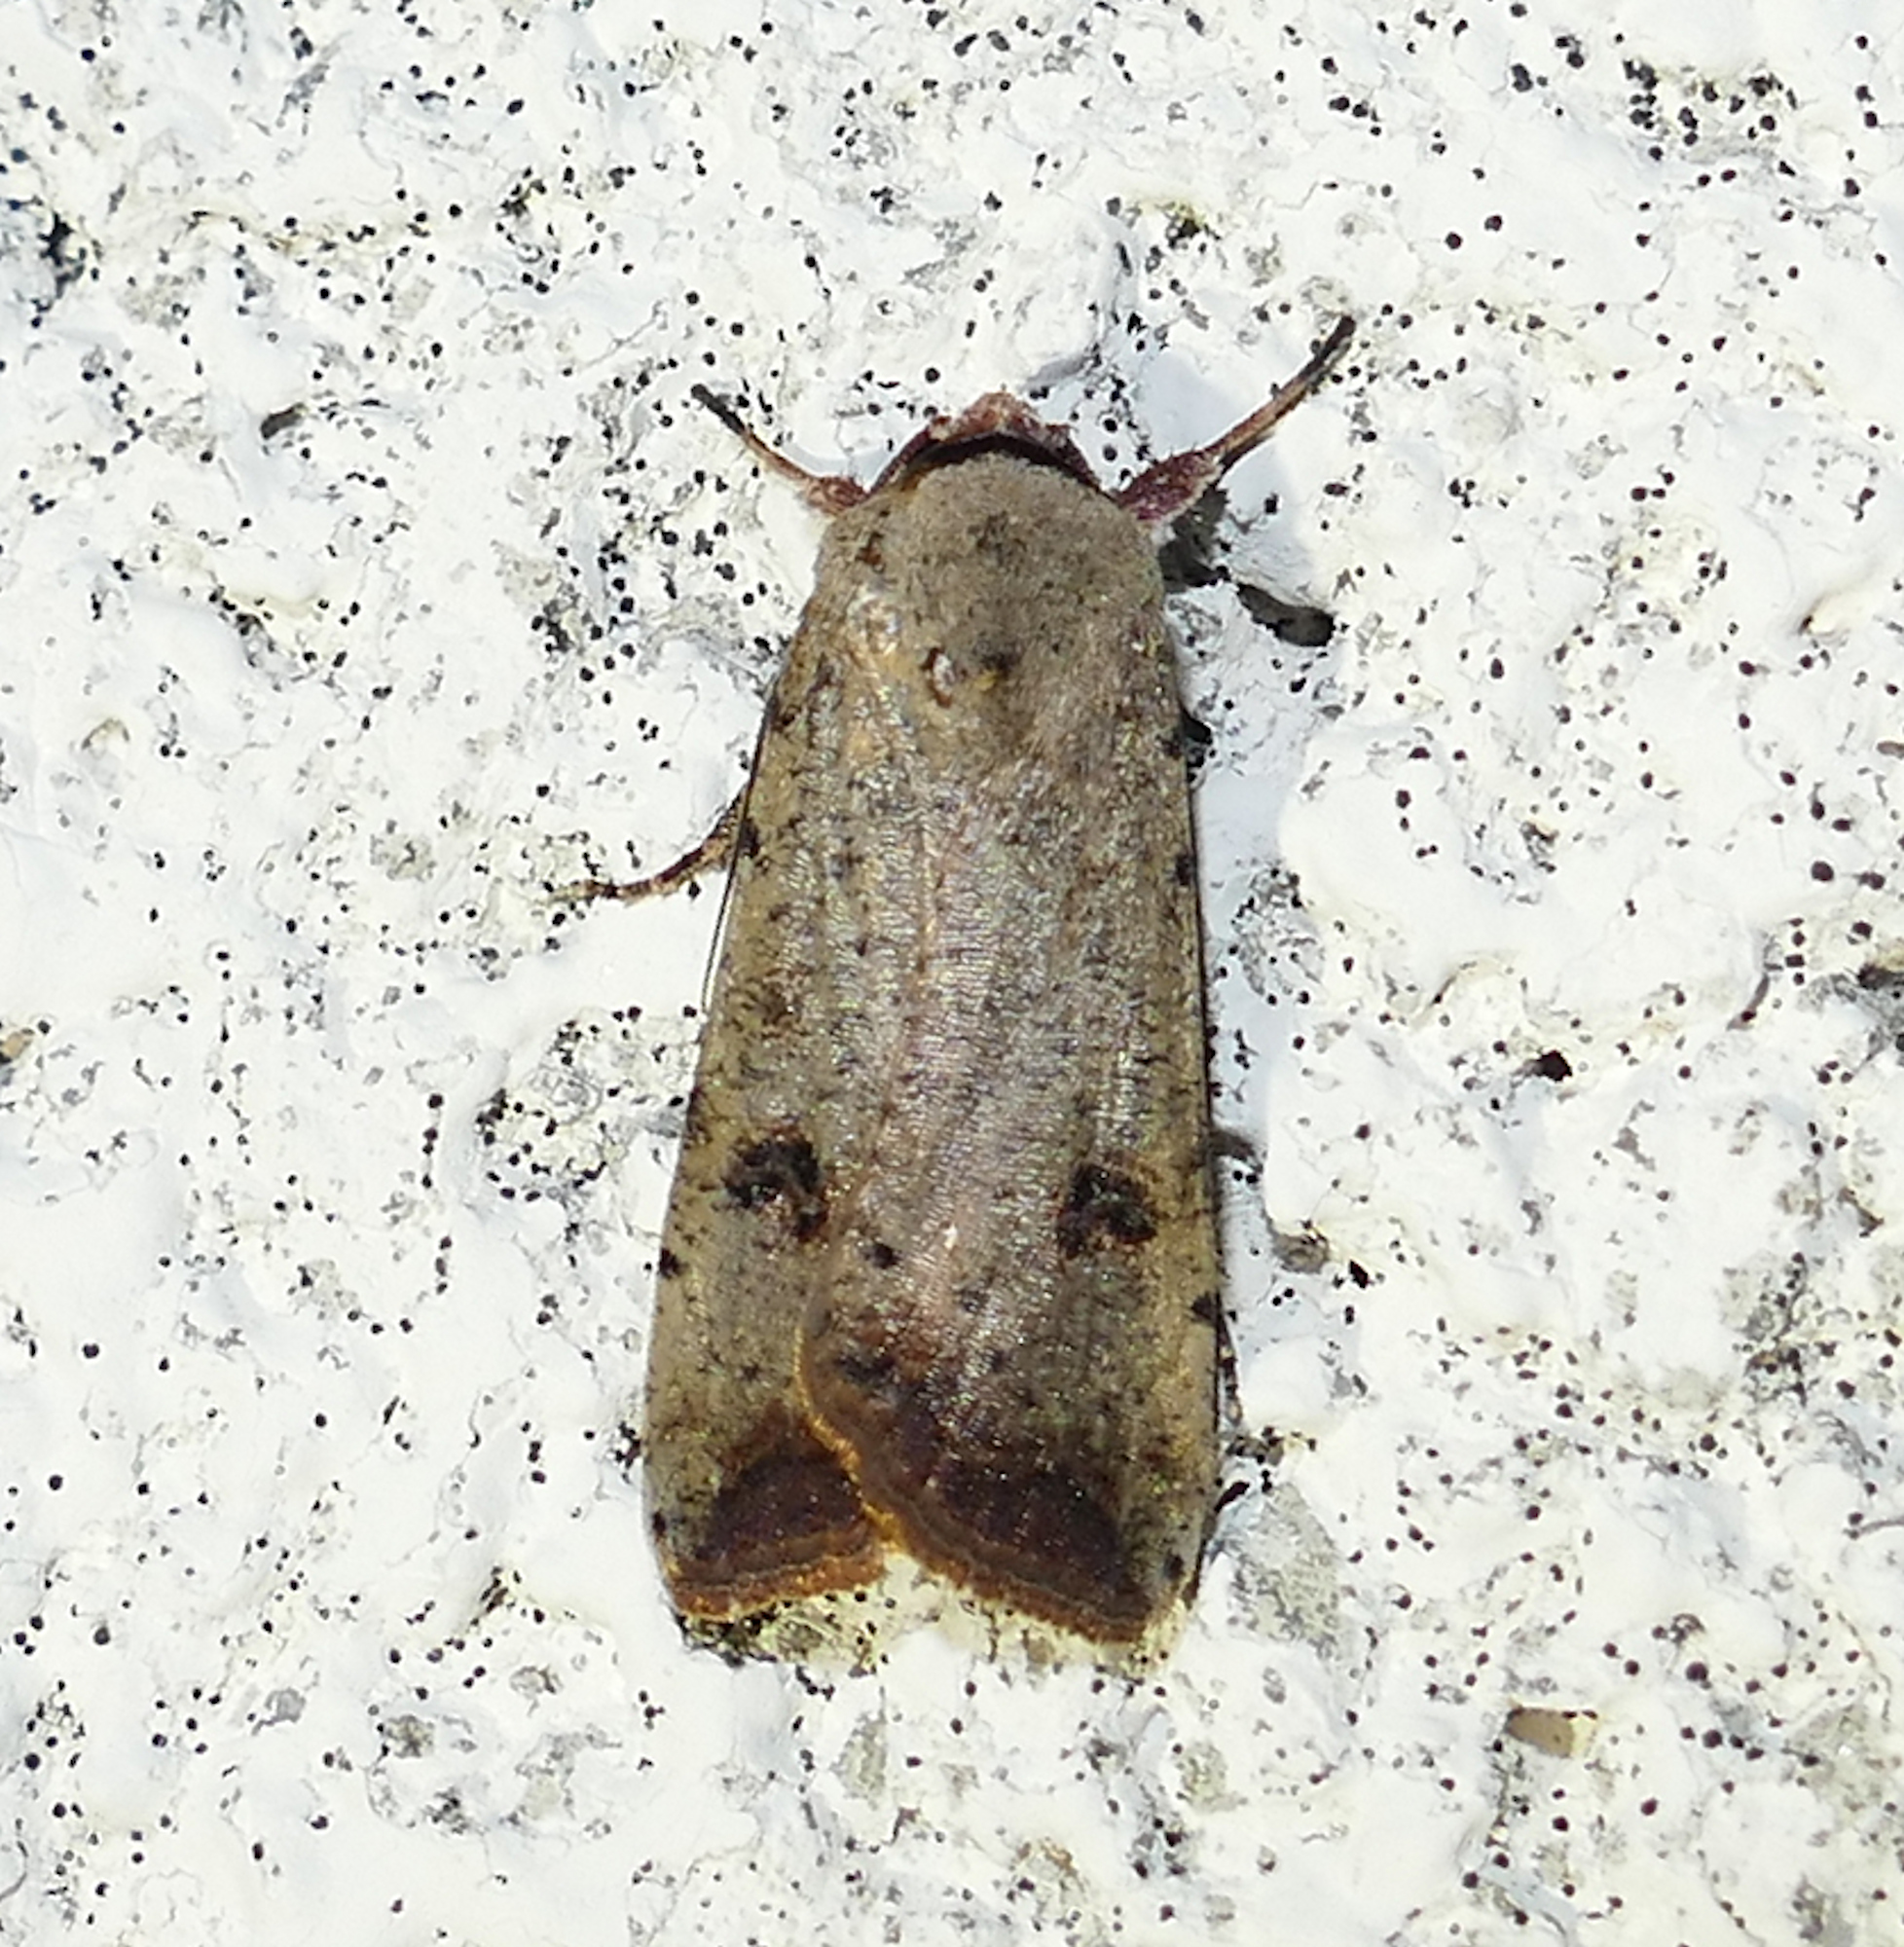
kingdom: Animalia
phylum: Arthropoda
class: Insecta
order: Lepidoptera
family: Noctuidae
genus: Anicla
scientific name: Anicla infecta
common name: Green cutworm
